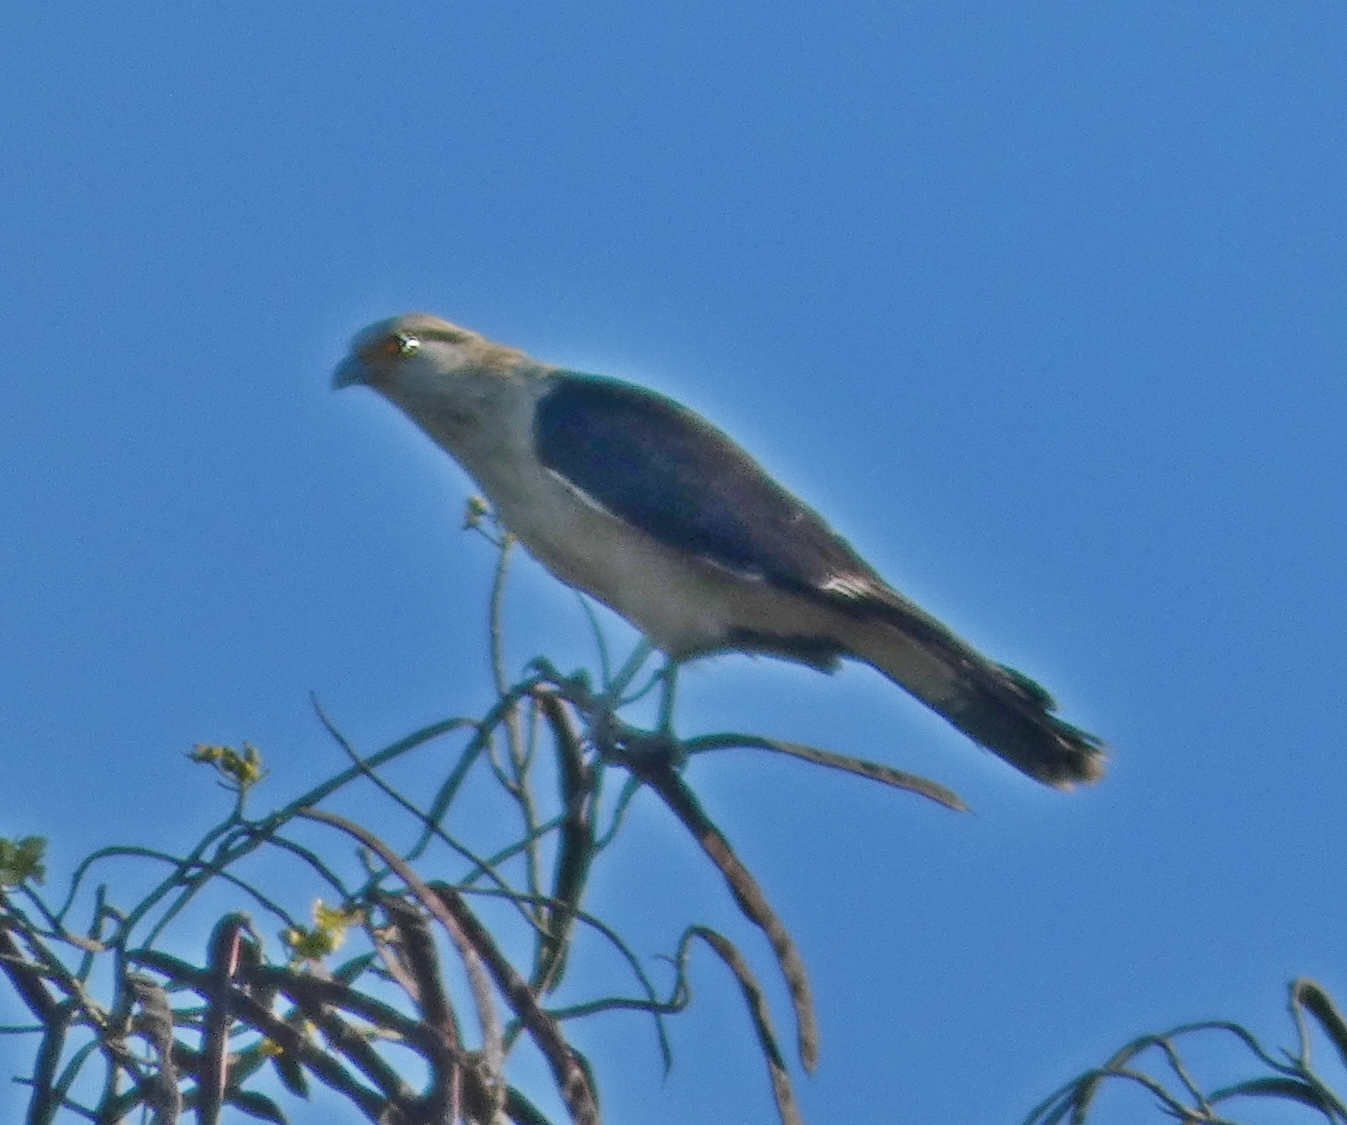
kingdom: Animalia
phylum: Chordata
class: Aves
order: Falconiformes
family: Falconidae
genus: Daptrius
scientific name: Daptrius
